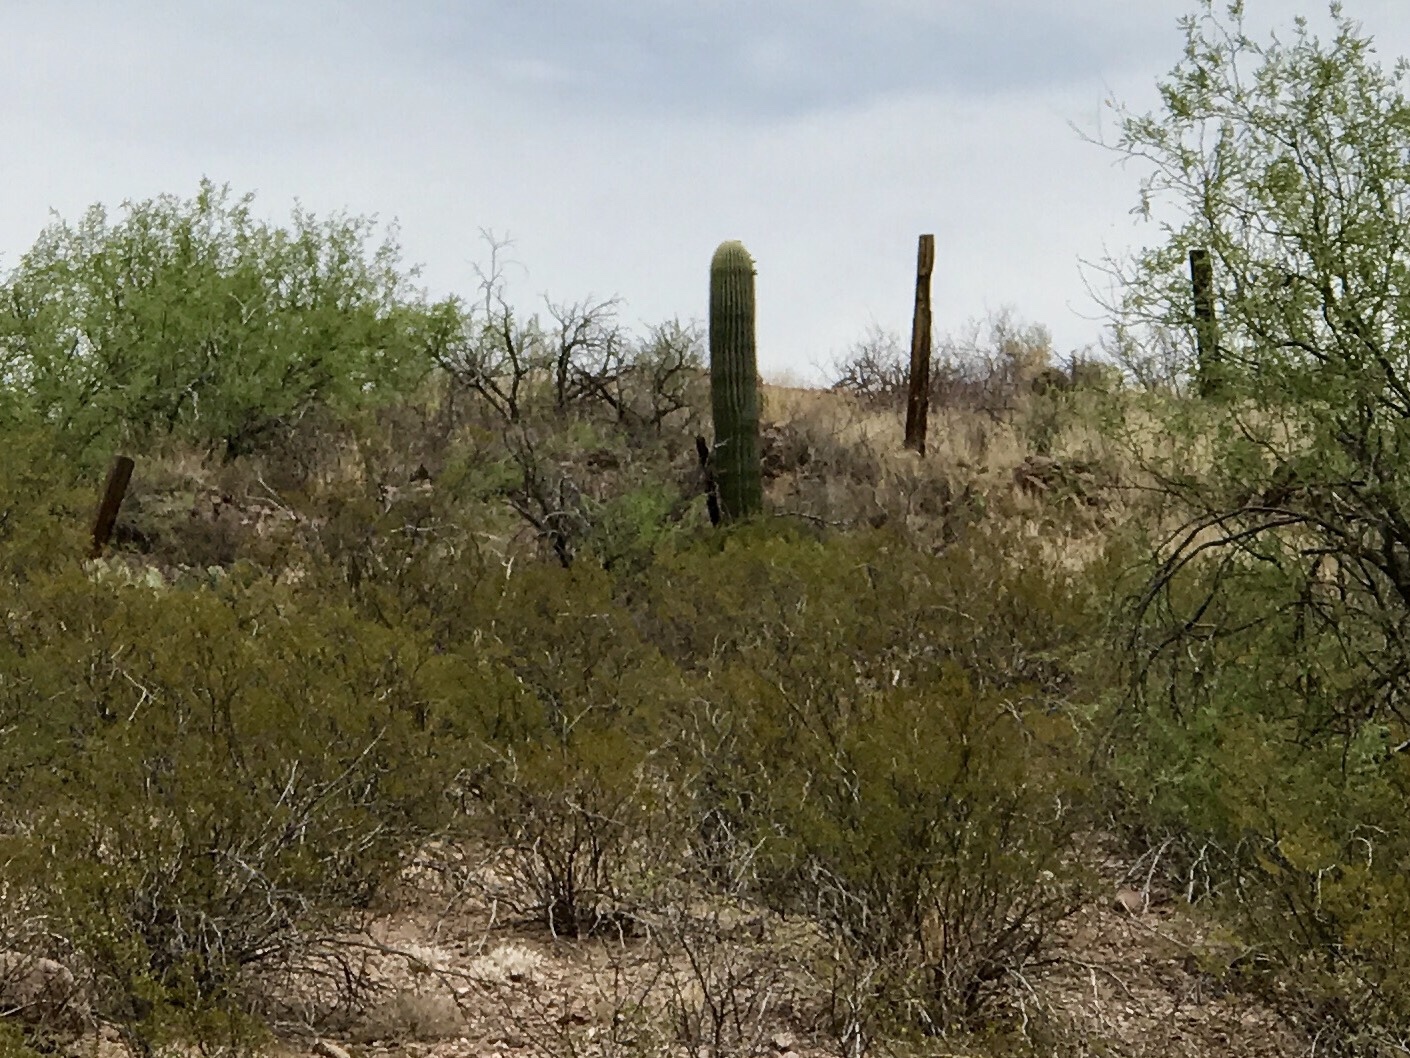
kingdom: Plantae
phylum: Tracheophyta
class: Magnoliopsida
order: Caryophyllales
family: Cactaceae
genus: Carnegiea
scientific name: Carnegiea gigantea
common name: Saguaro
